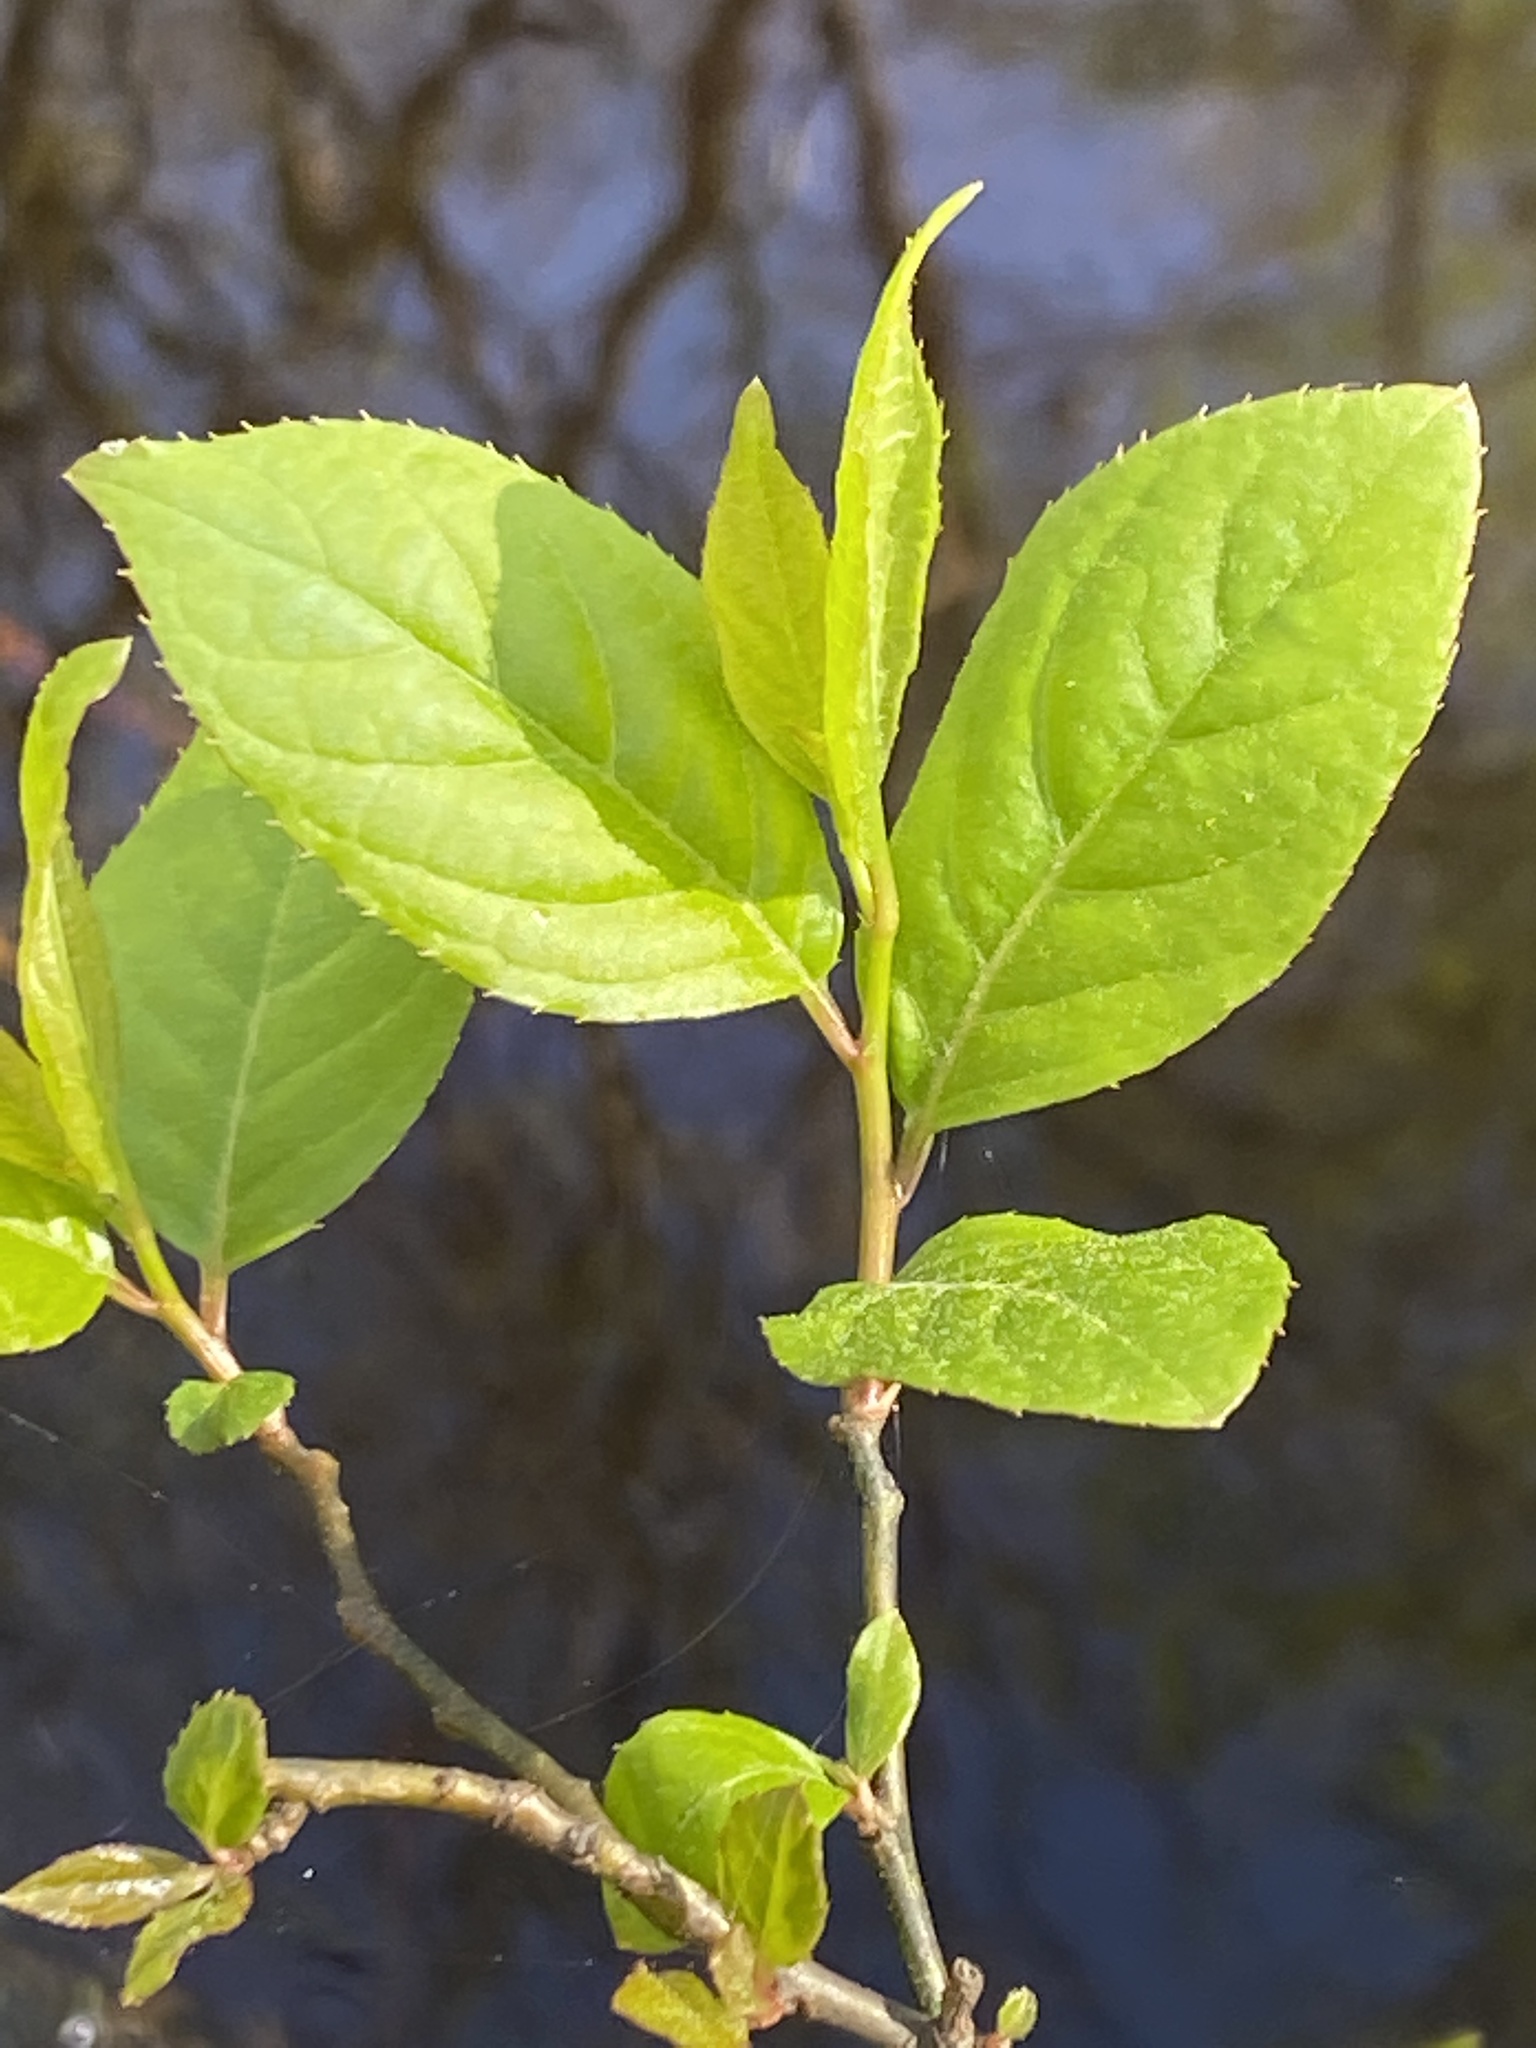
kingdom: Plantae
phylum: Tracheophyta
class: Magnoliopsida
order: Saxifragales
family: Iteaceae
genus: Itea
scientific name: Itea virginica
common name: Sweetspire
